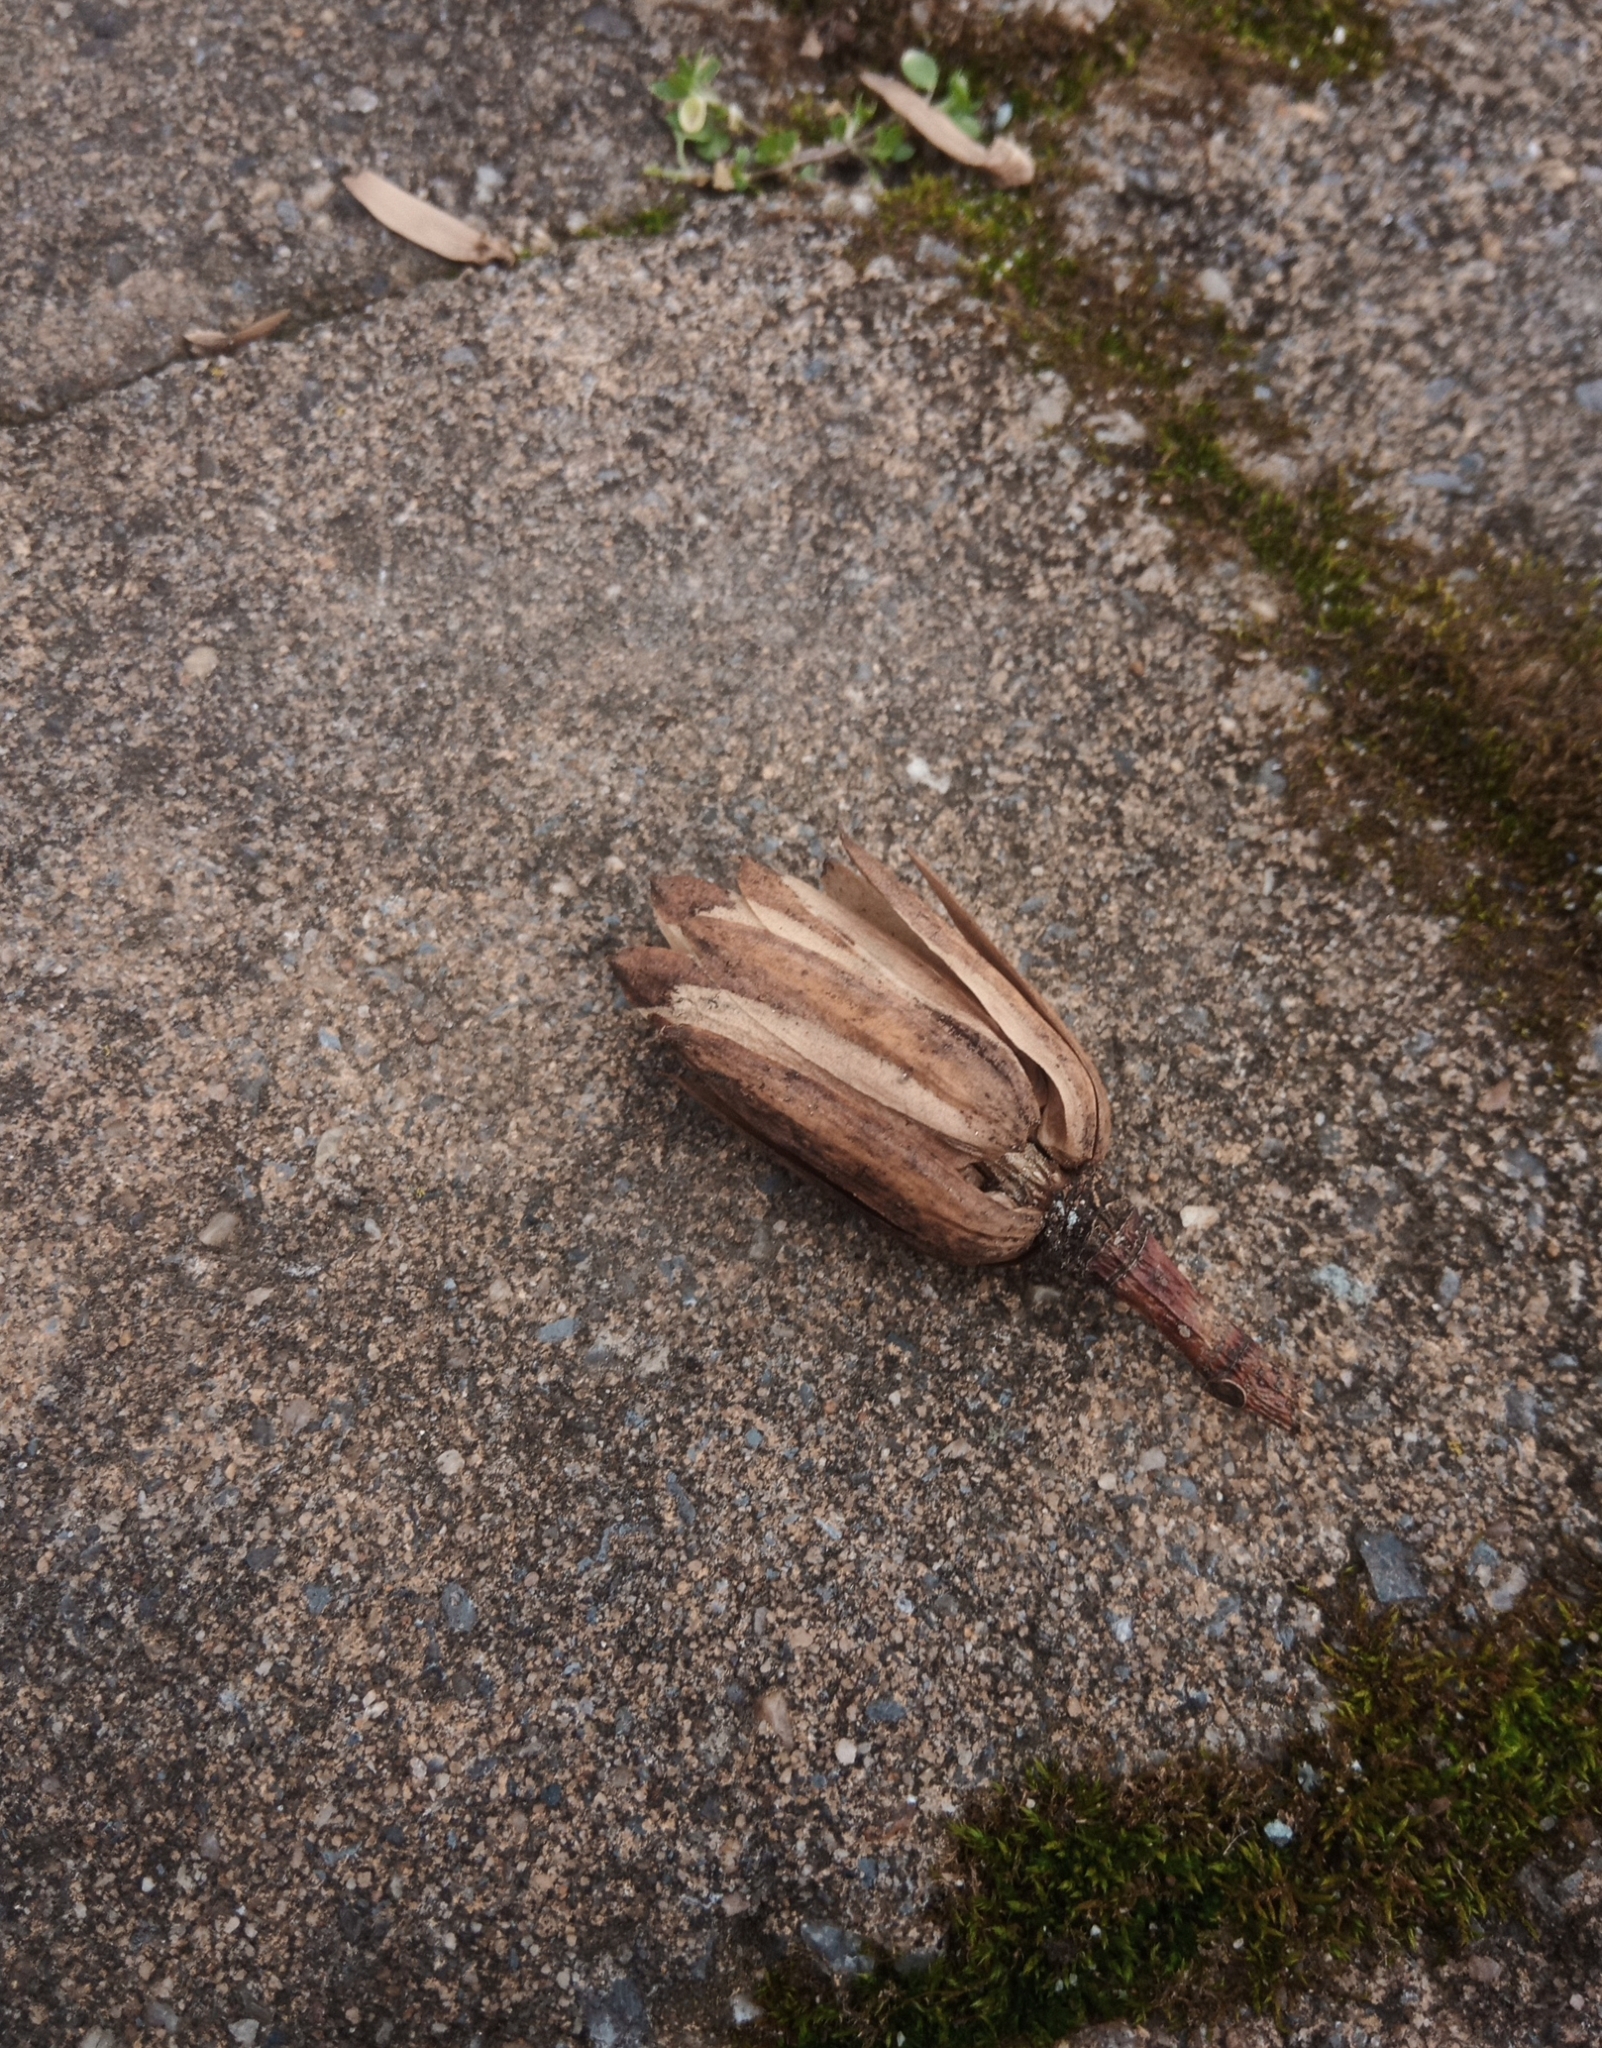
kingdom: Plantae
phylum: Tracheophyta
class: Magnoliopsida
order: Magnoliales
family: Magnoliaceae
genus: Liriodendron
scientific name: Liriodendron tulipifera
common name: Tulip tree
